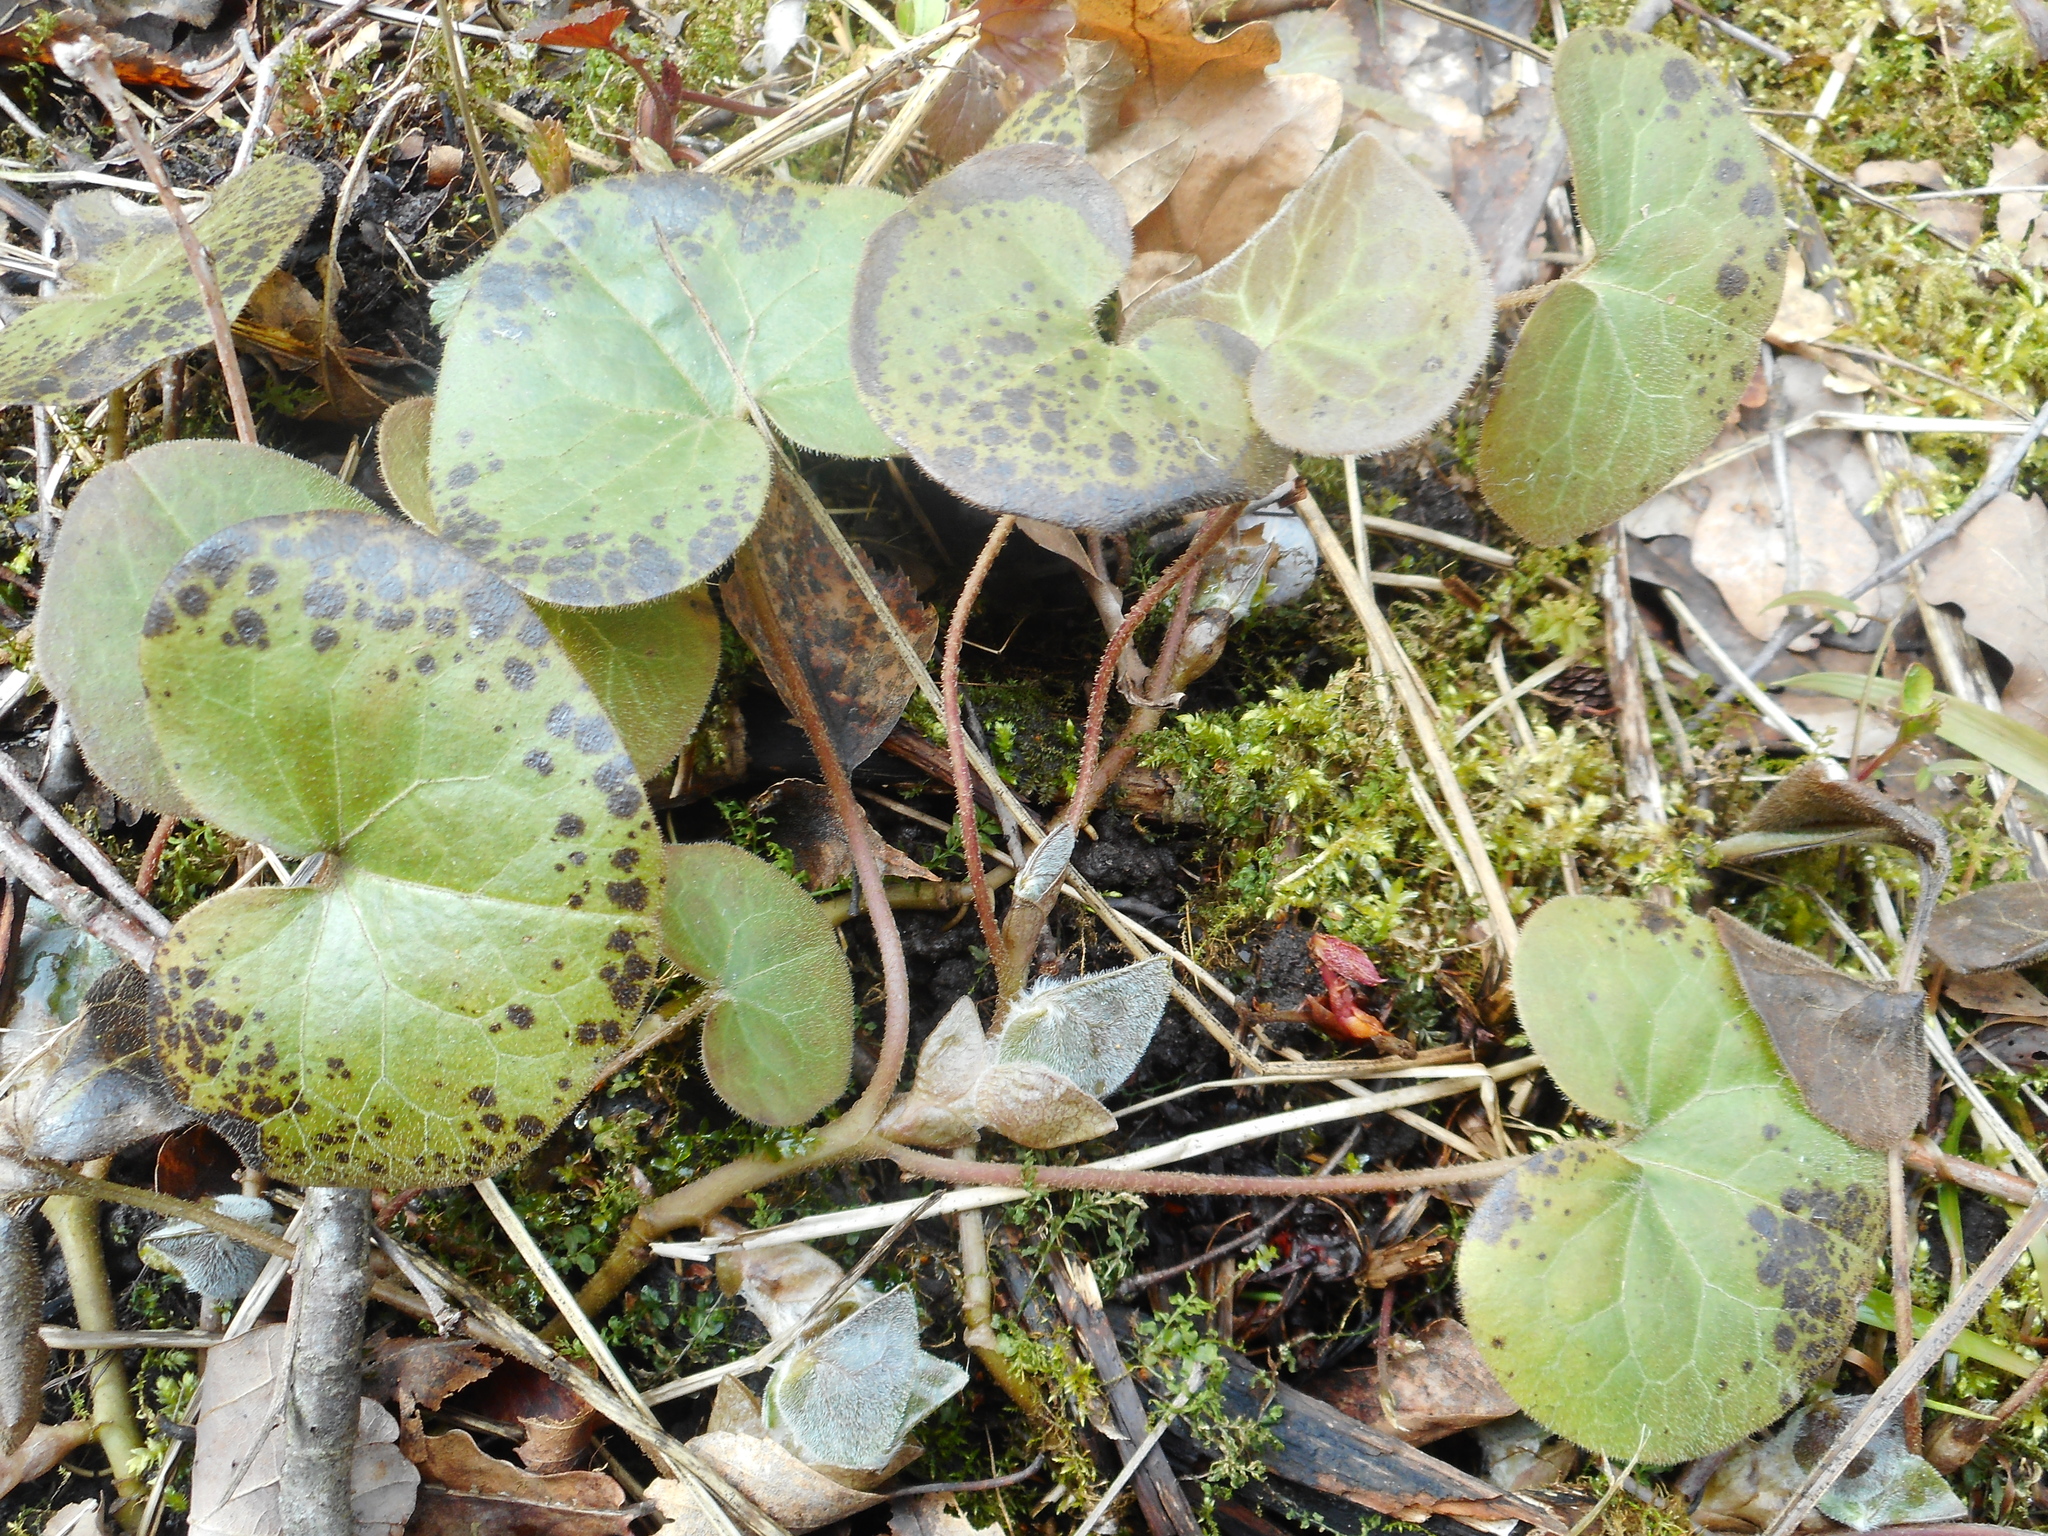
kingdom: Plantae
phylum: Tracheophyta
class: Magnoliopsida
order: Piperales
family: Aristolochiaceae
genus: Asarum
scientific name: Asarum europaeum
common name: Asarabacca
